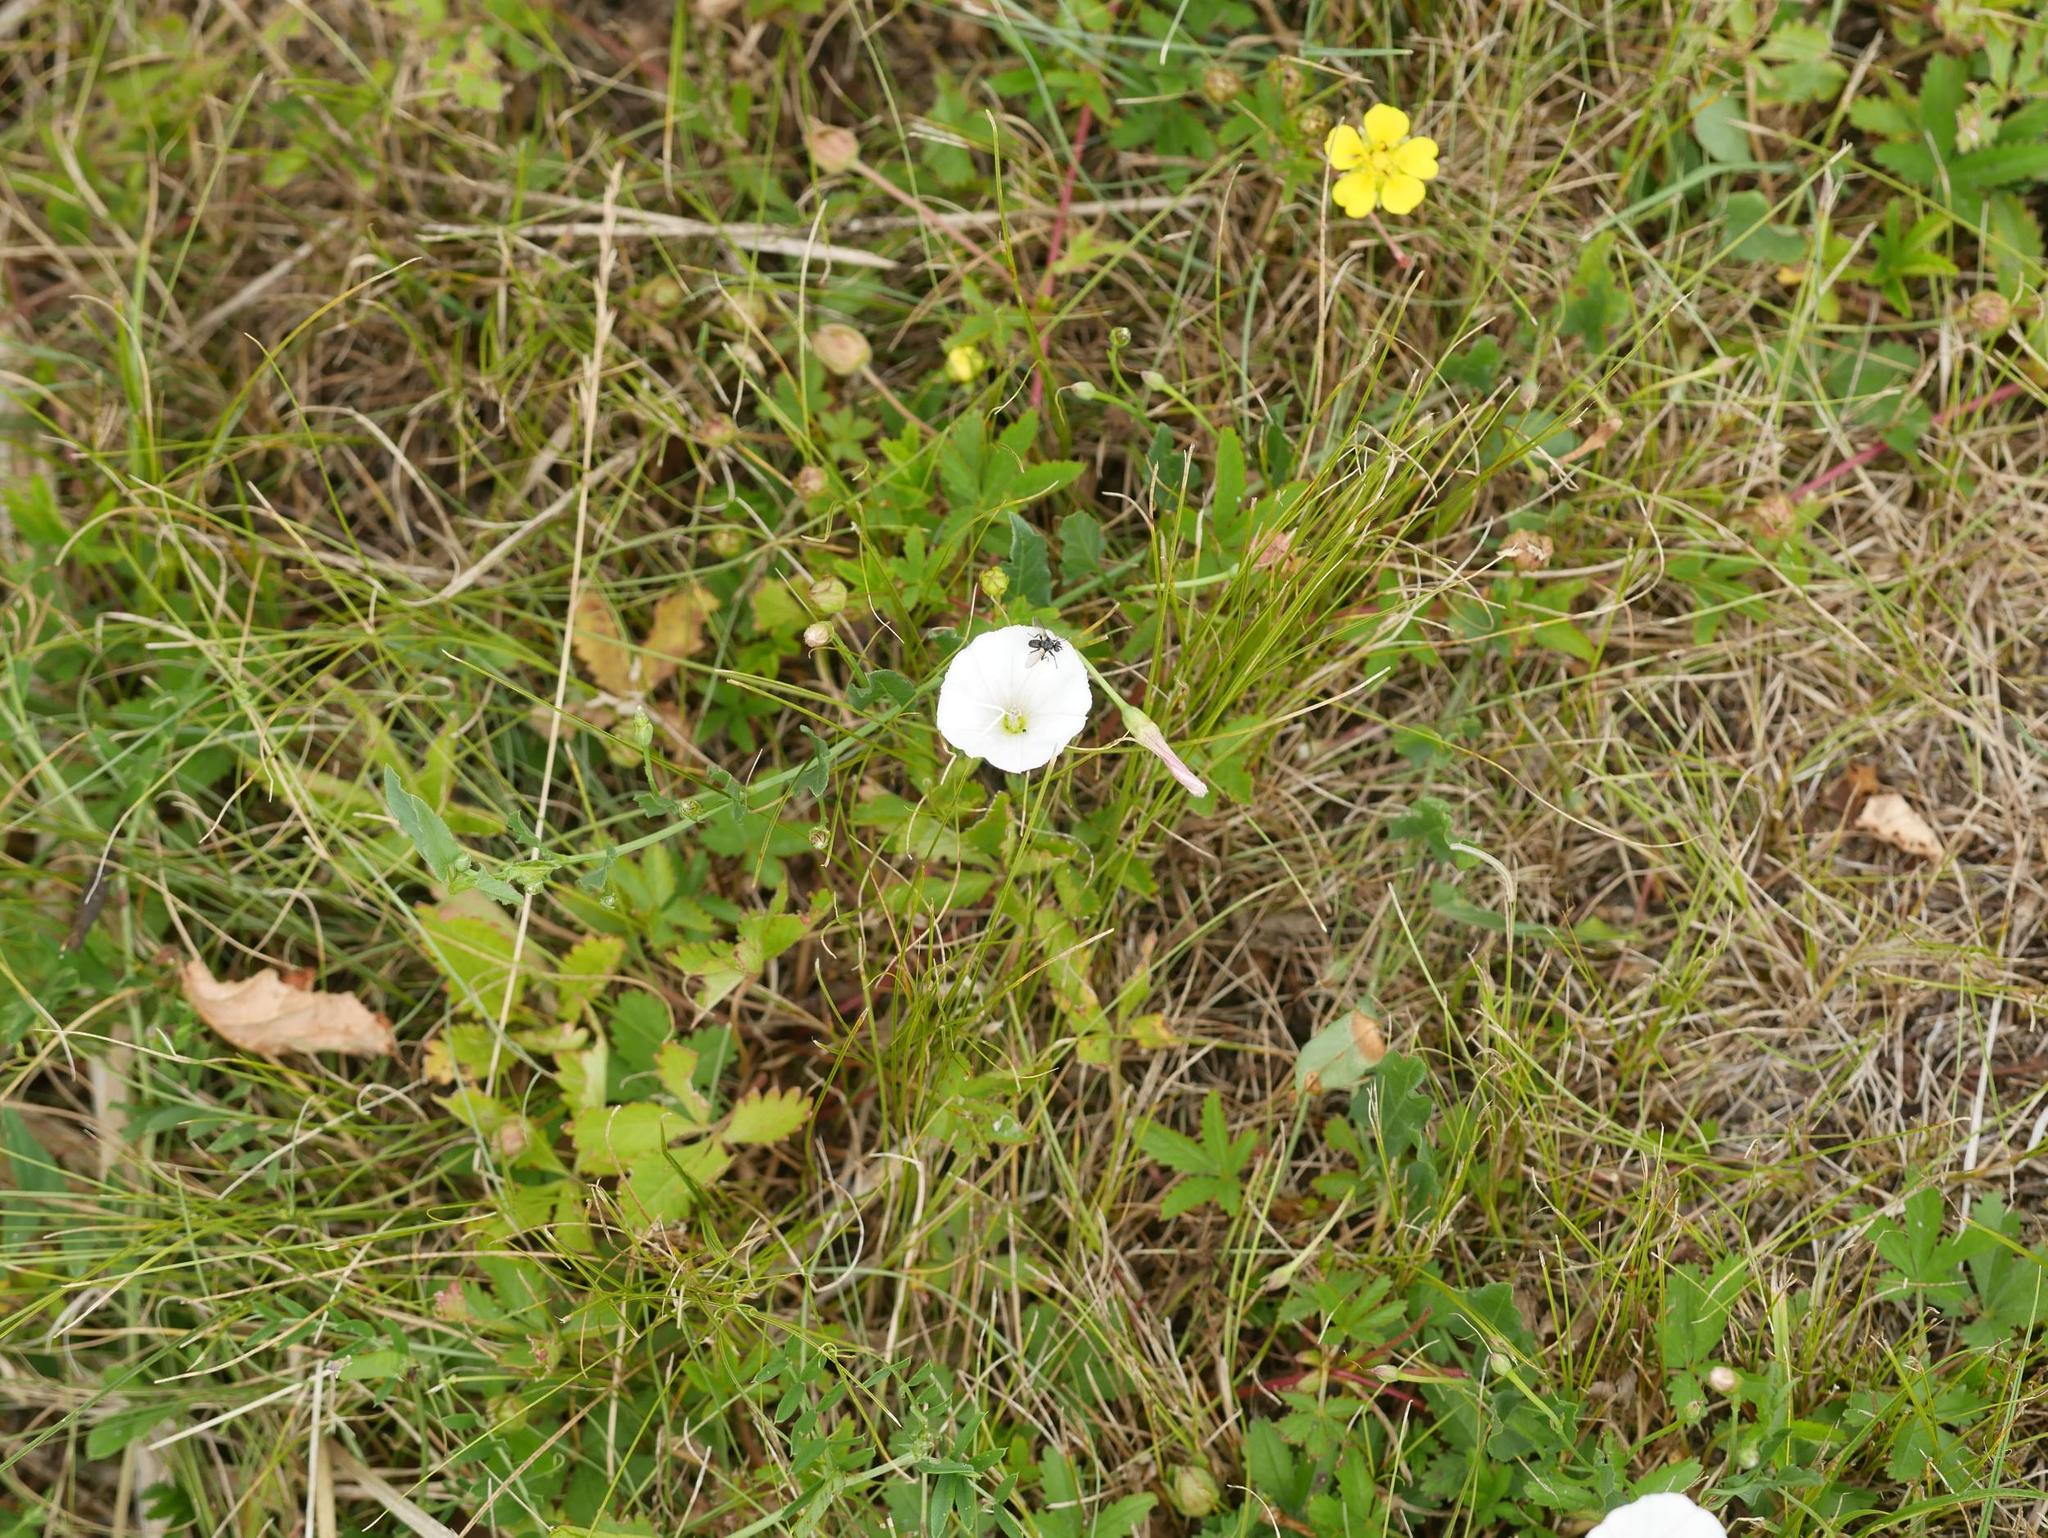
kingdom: Plantae
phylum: Tracheophyta
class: Magnoliopsida
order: Solanales
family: Convolvulaceae
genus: Convolvulus
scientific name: Convolvulus arvensis
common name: Field bindweed
